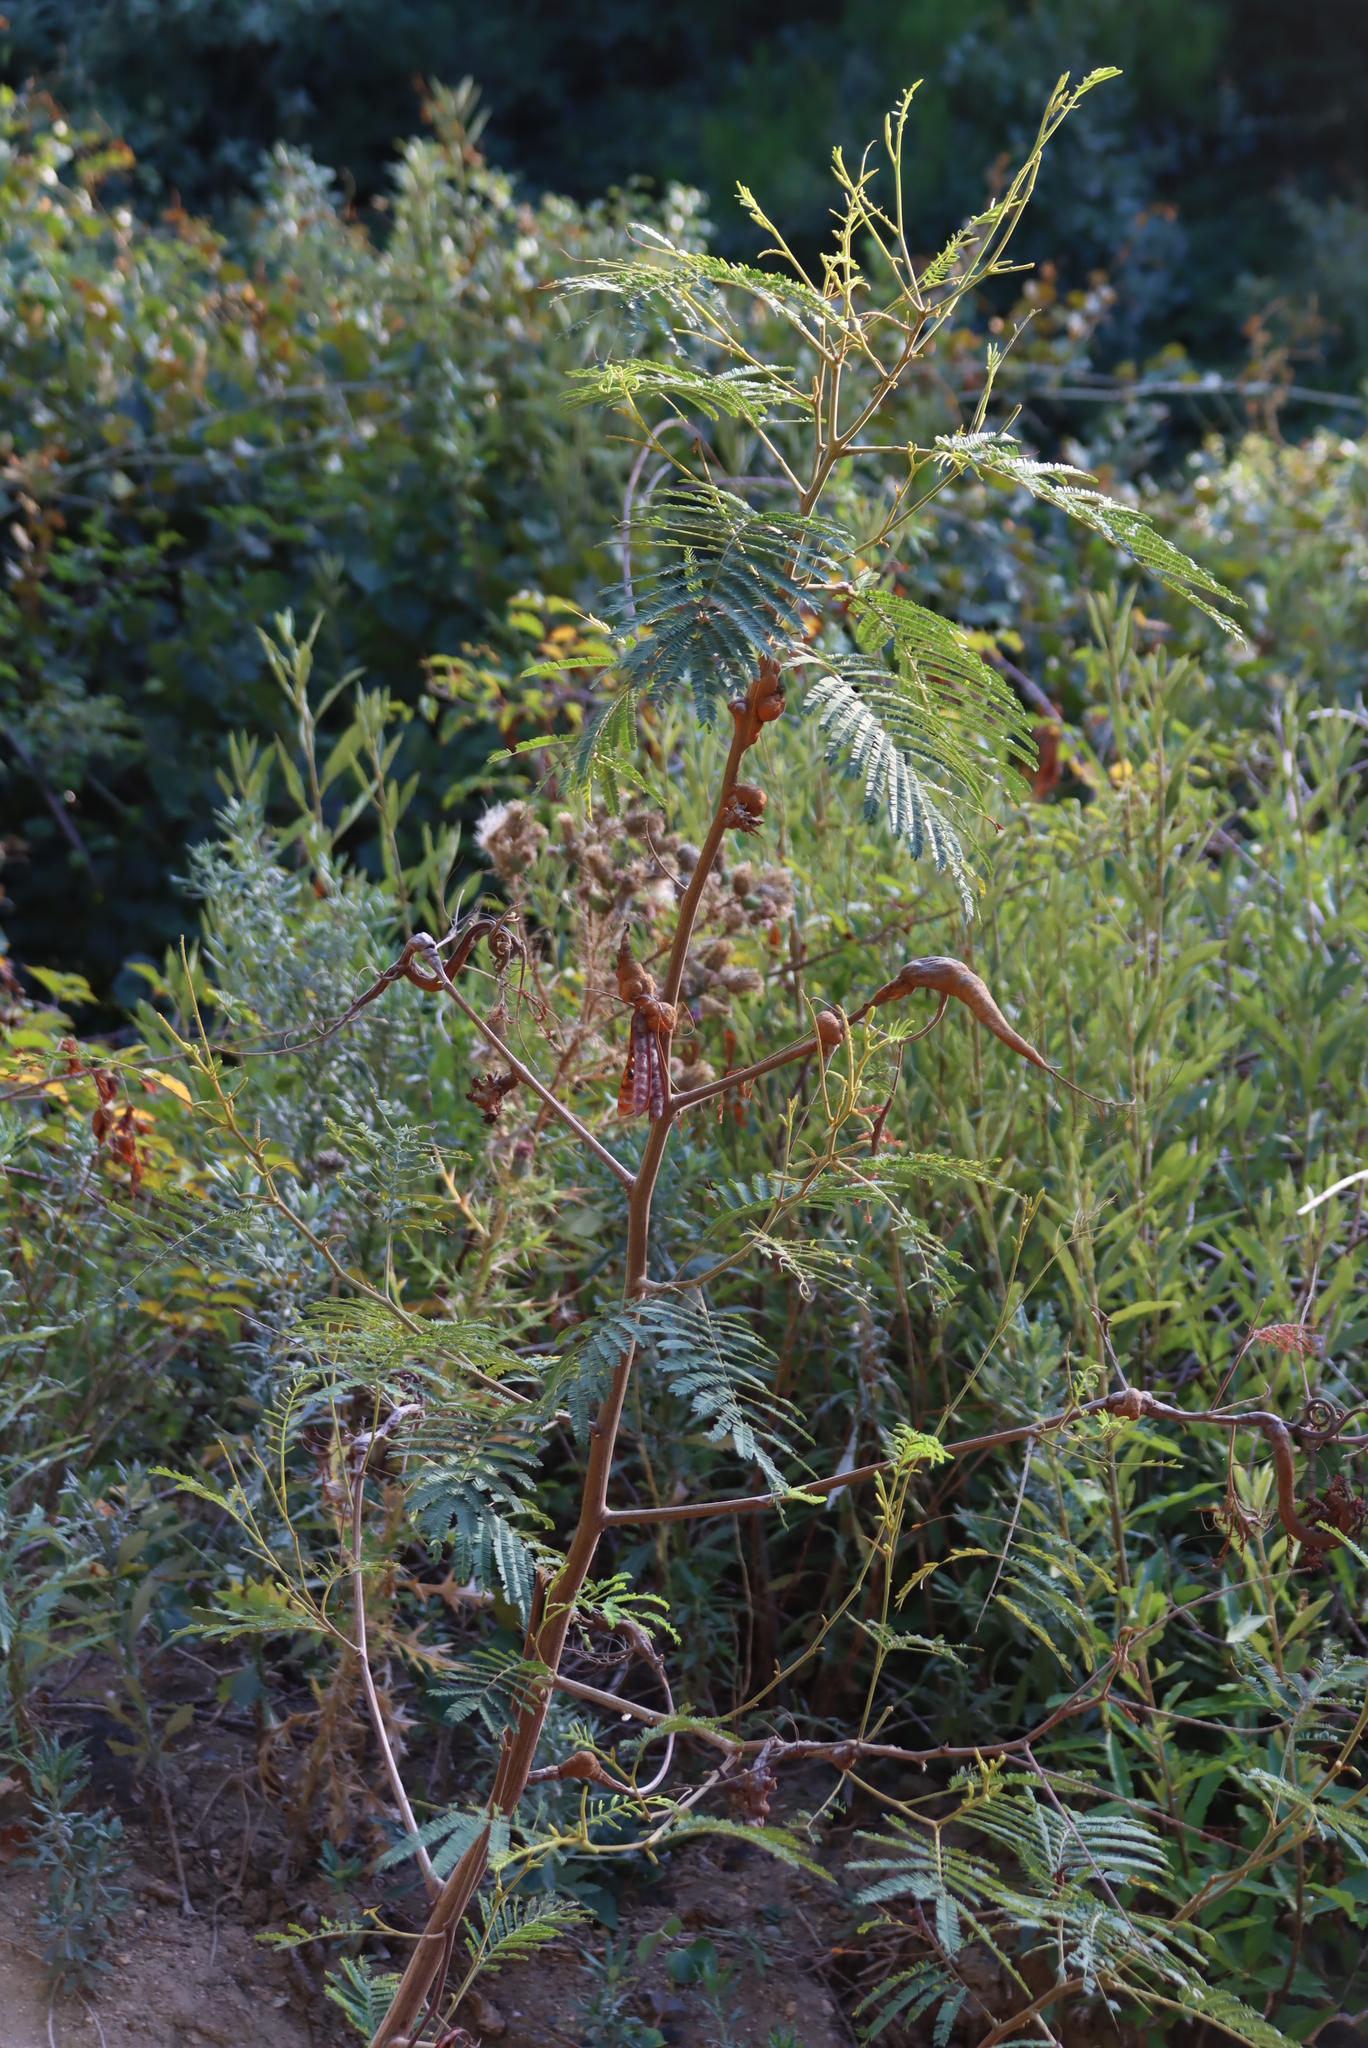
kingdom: Plantae
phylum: Tracheophyta
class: Magnoliopsida
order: Fabales
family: Fabaceae
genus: Paraserianthes
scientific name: Paraserianthes lophantha
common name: Plume albizia
